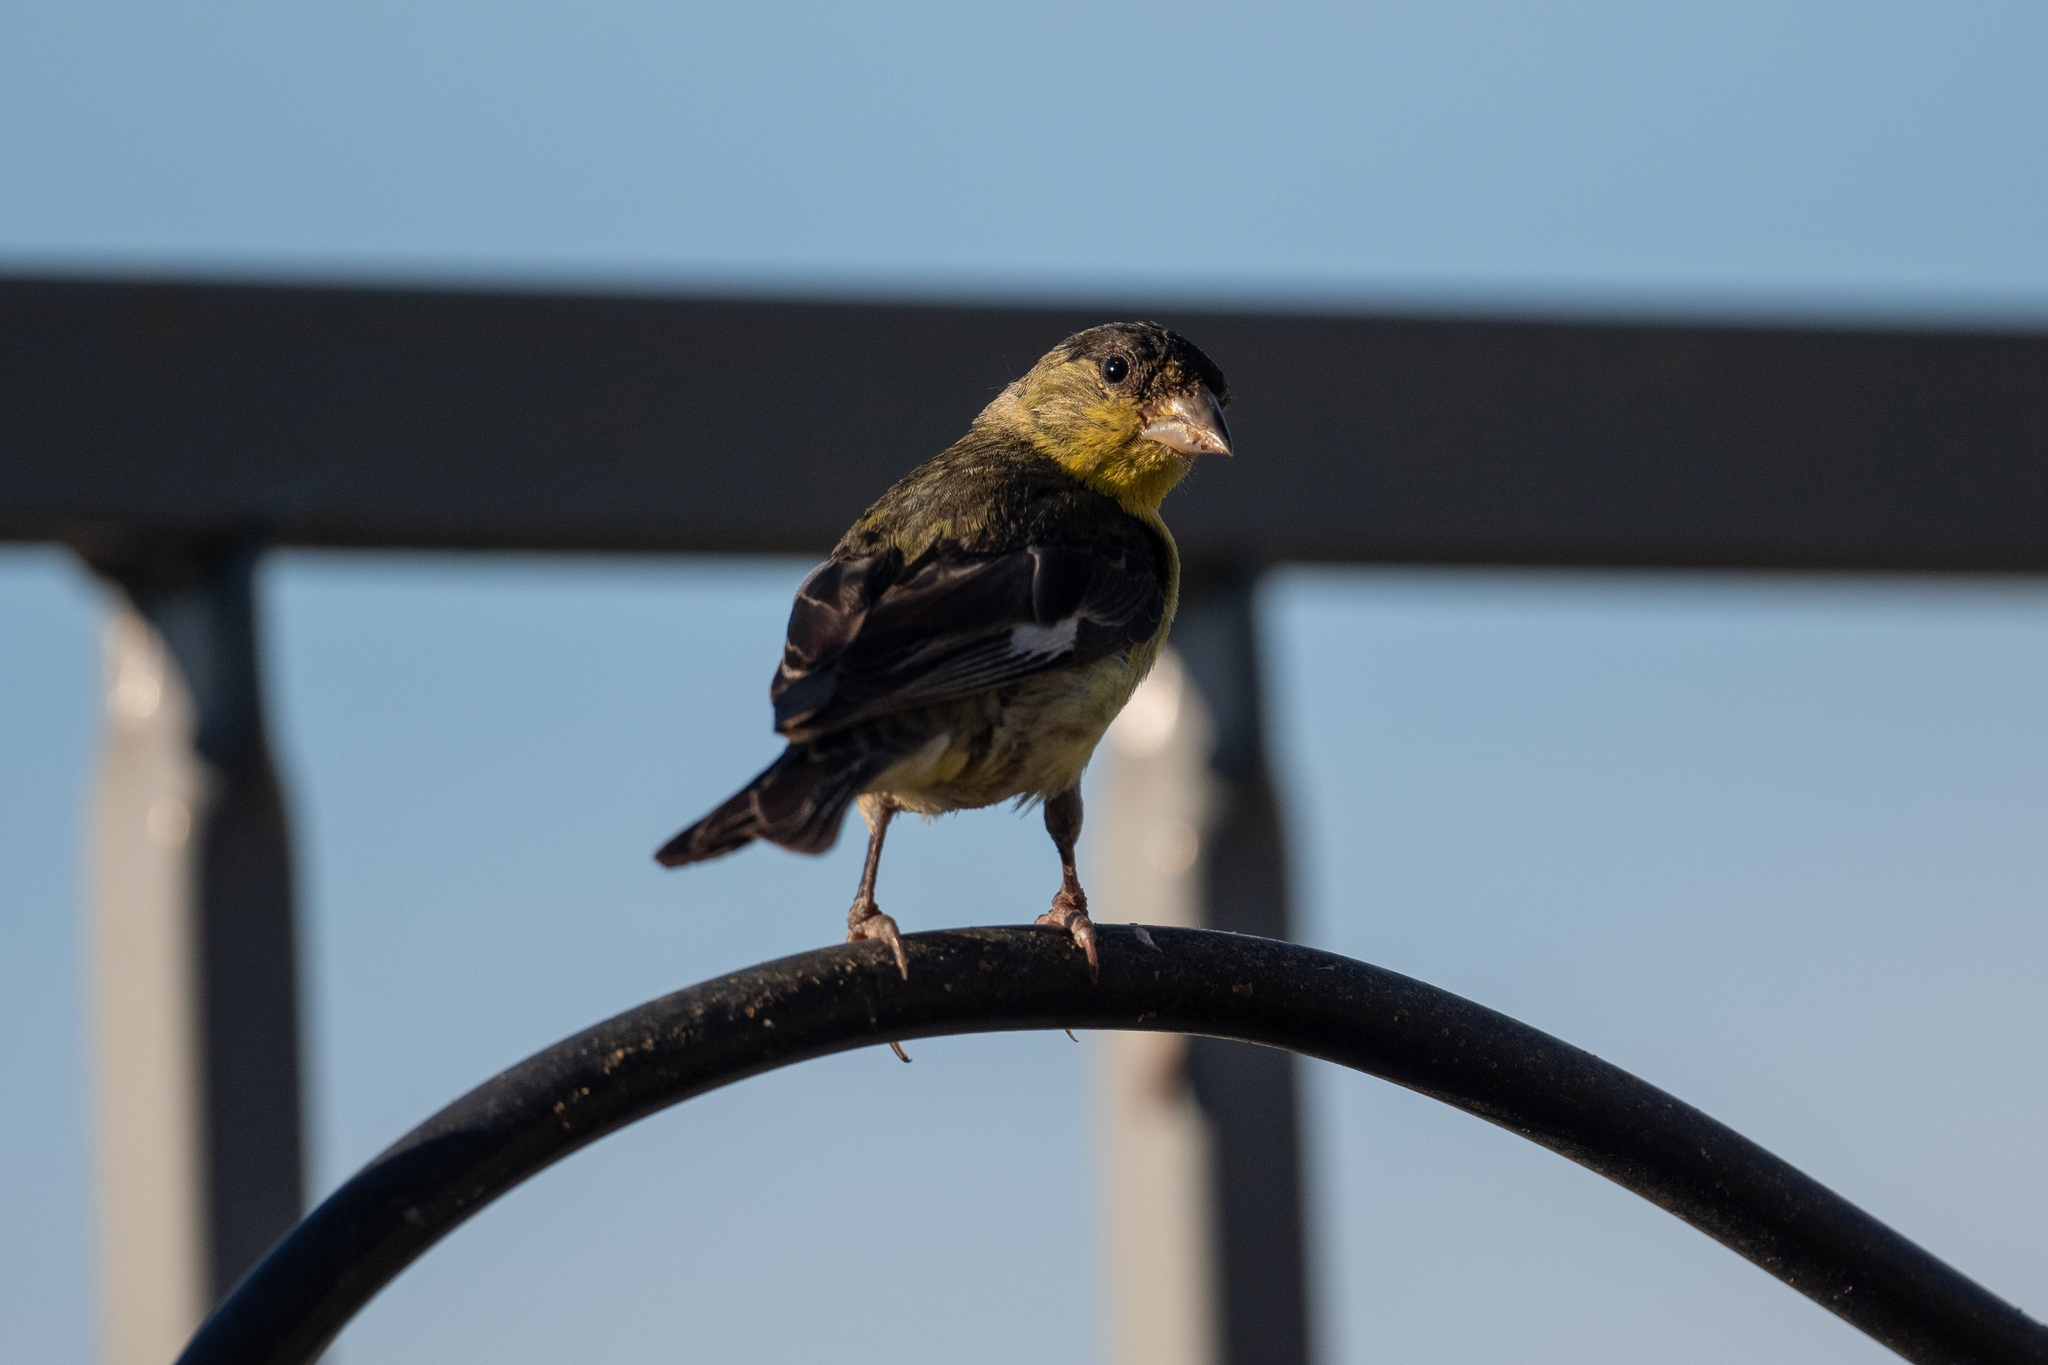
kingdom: Animalia
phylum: Chordata
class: Aves
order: Passeriformes
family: Fringillidae
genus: Spinus
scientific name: Spinus psaltria
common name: Lesser goldfinch
